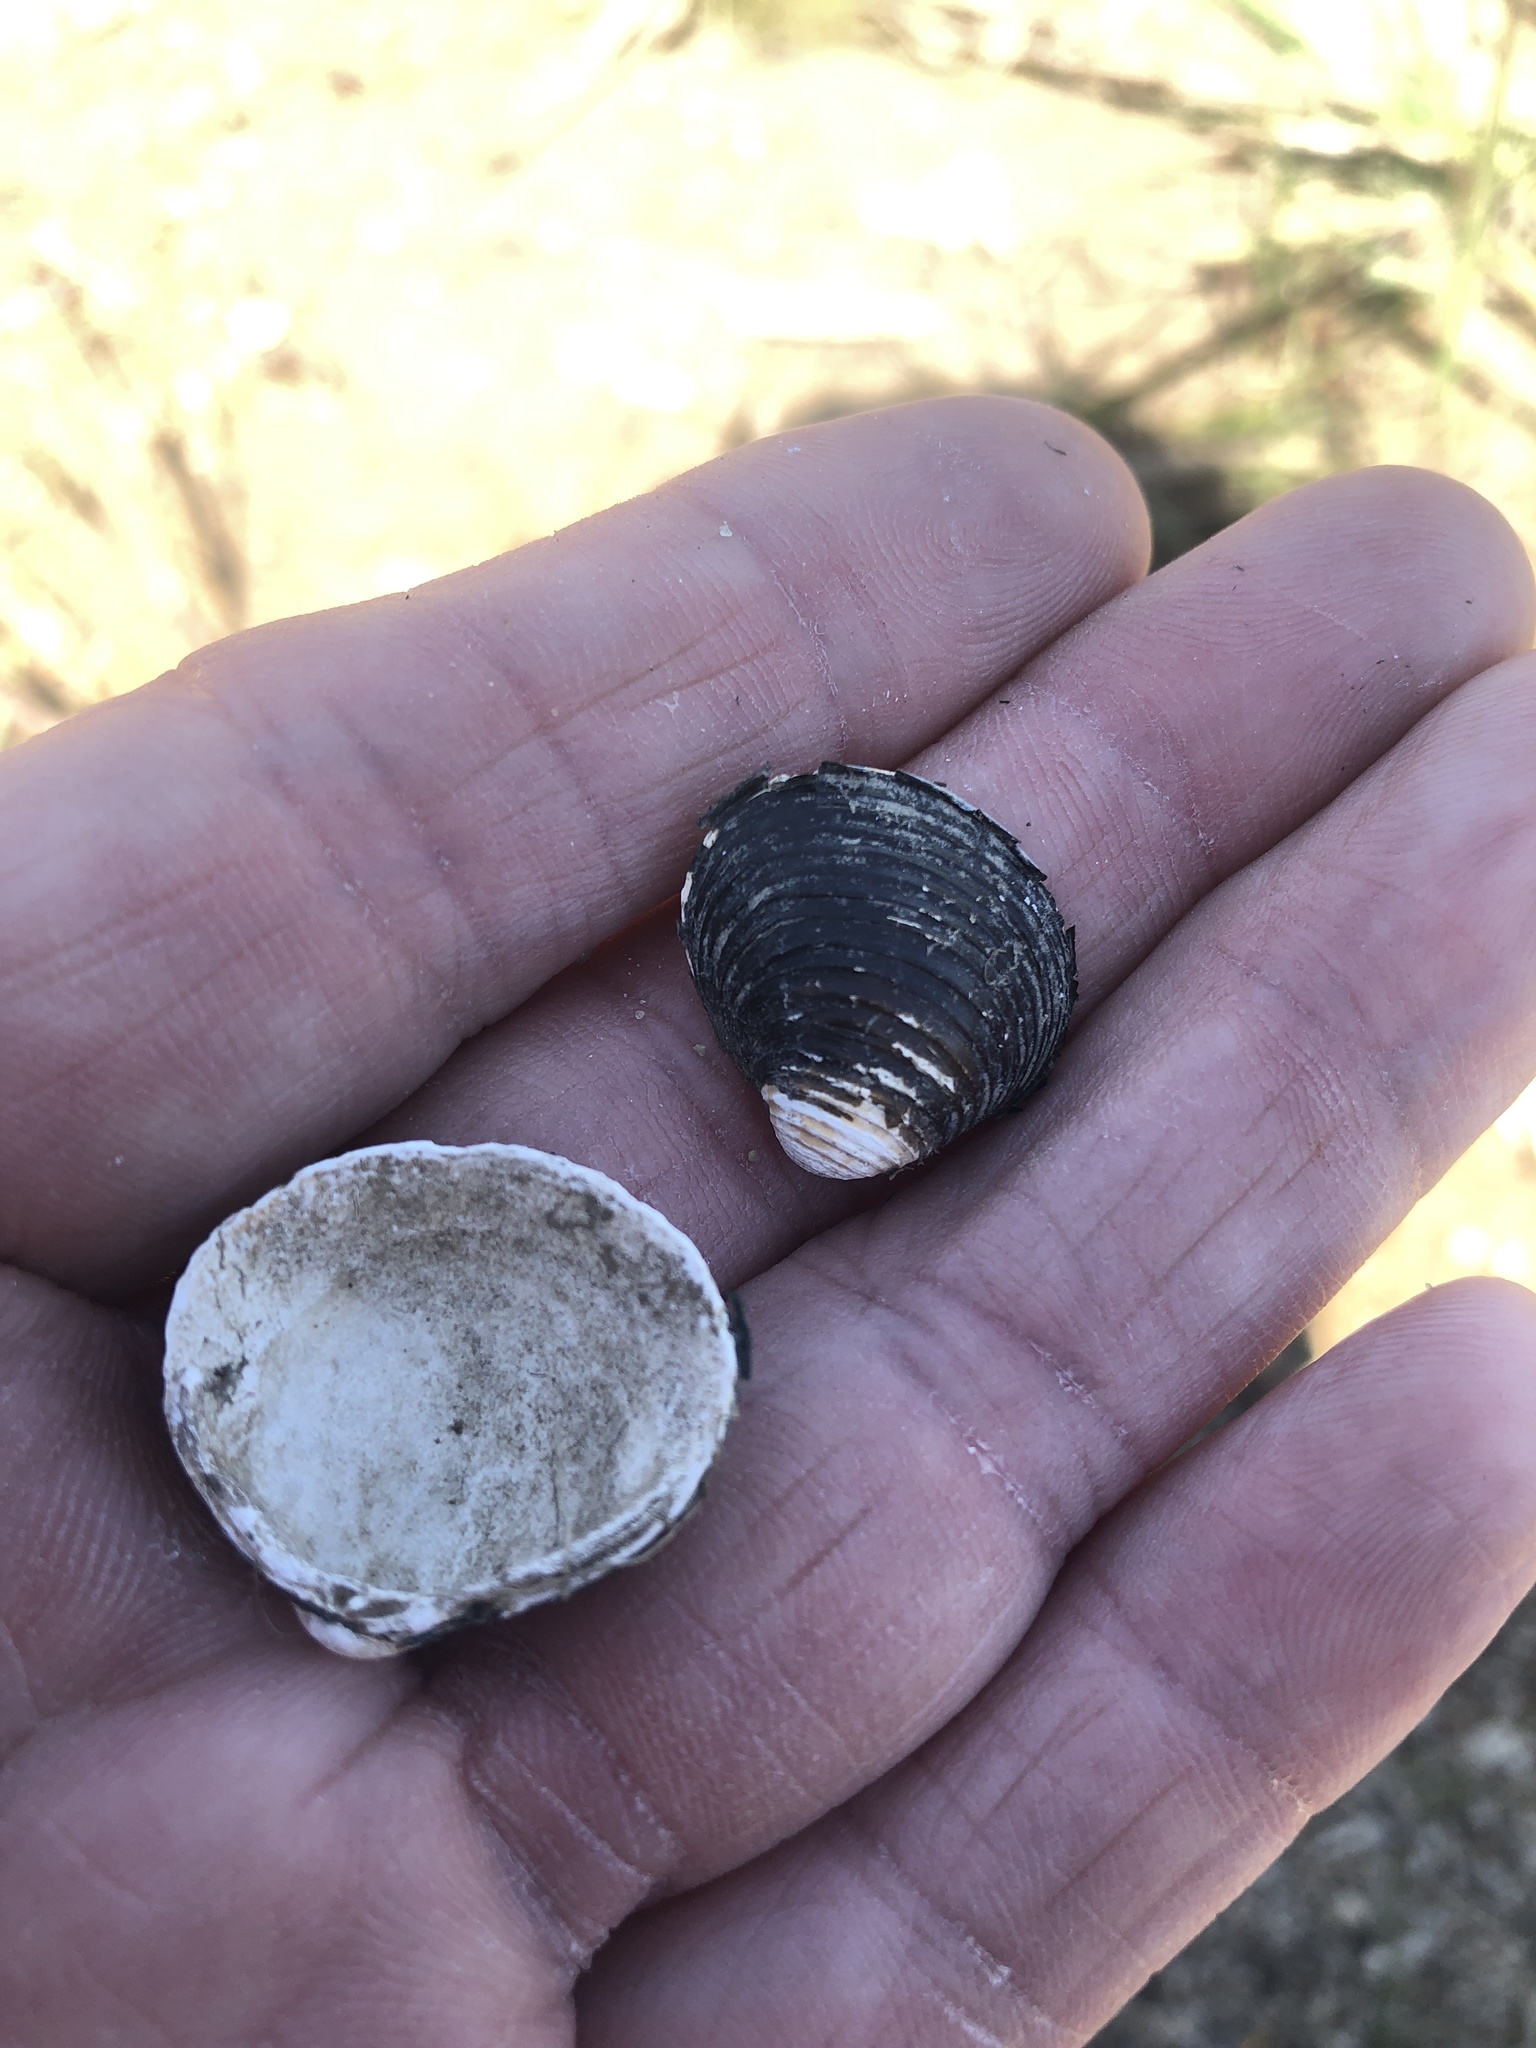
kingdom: Animalia
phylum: Mollusca
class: Bivalvia
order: Venerida
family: Cyrenidae
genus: Corbicula
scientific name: Corbicula fluminea
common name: Asian clam
